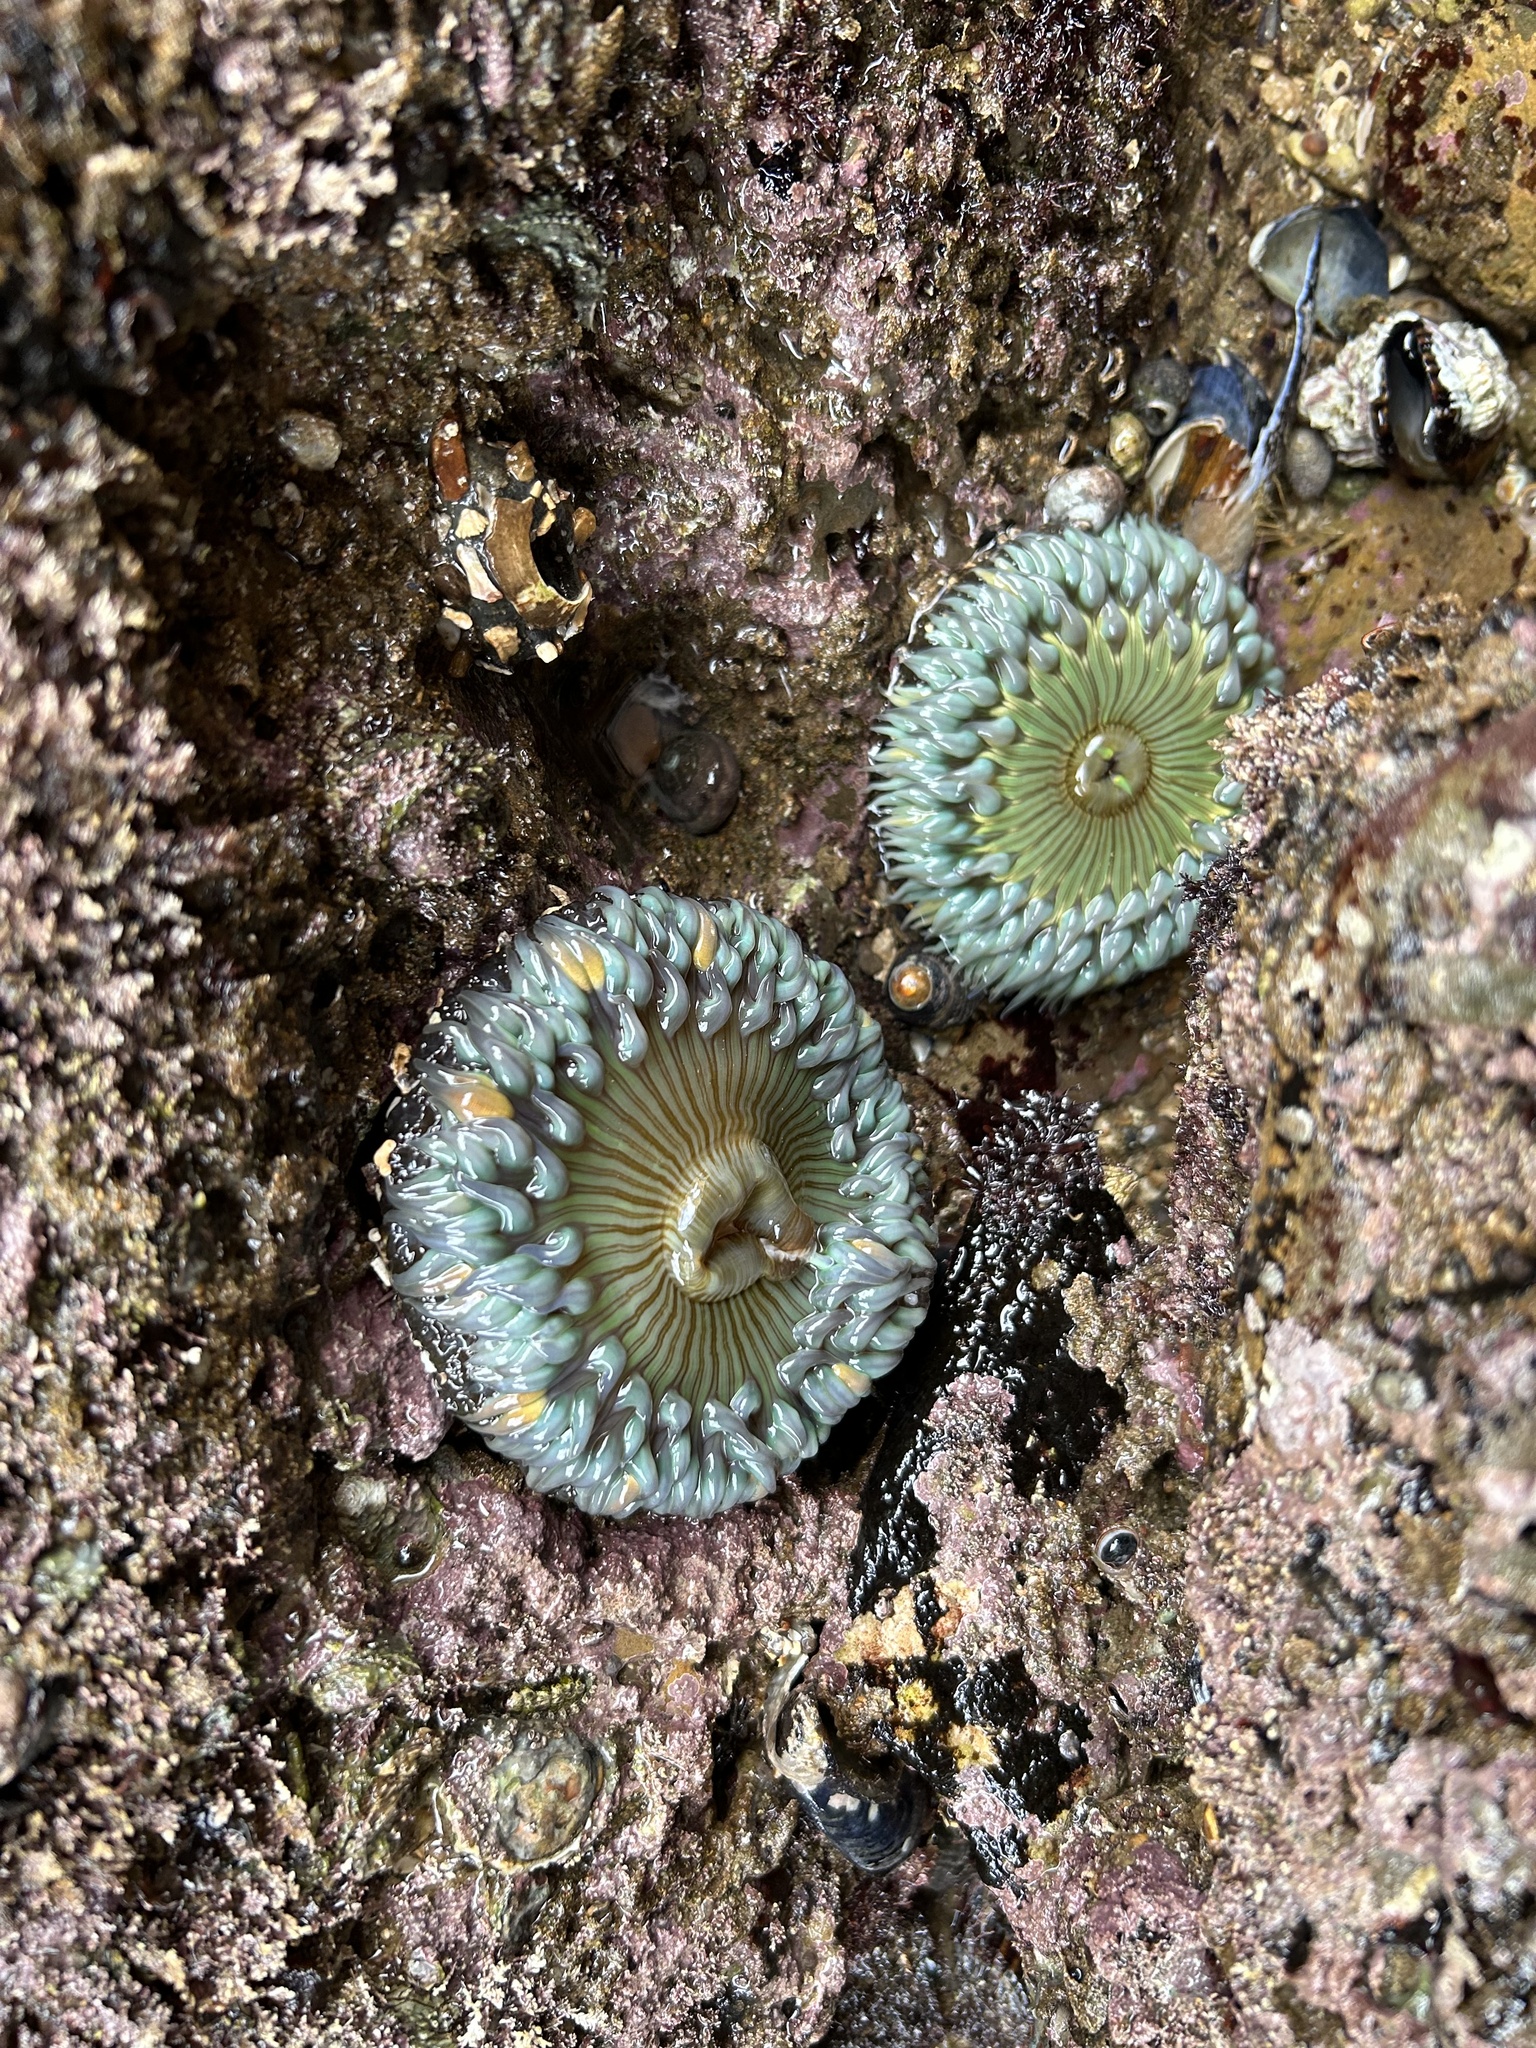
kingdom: Animalia
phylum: Cnidaria
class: Anthozoa
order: Actiniaria
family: Actiniidae
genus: Anthopleura
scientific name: Anthopleura sola
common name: Sun anemone
